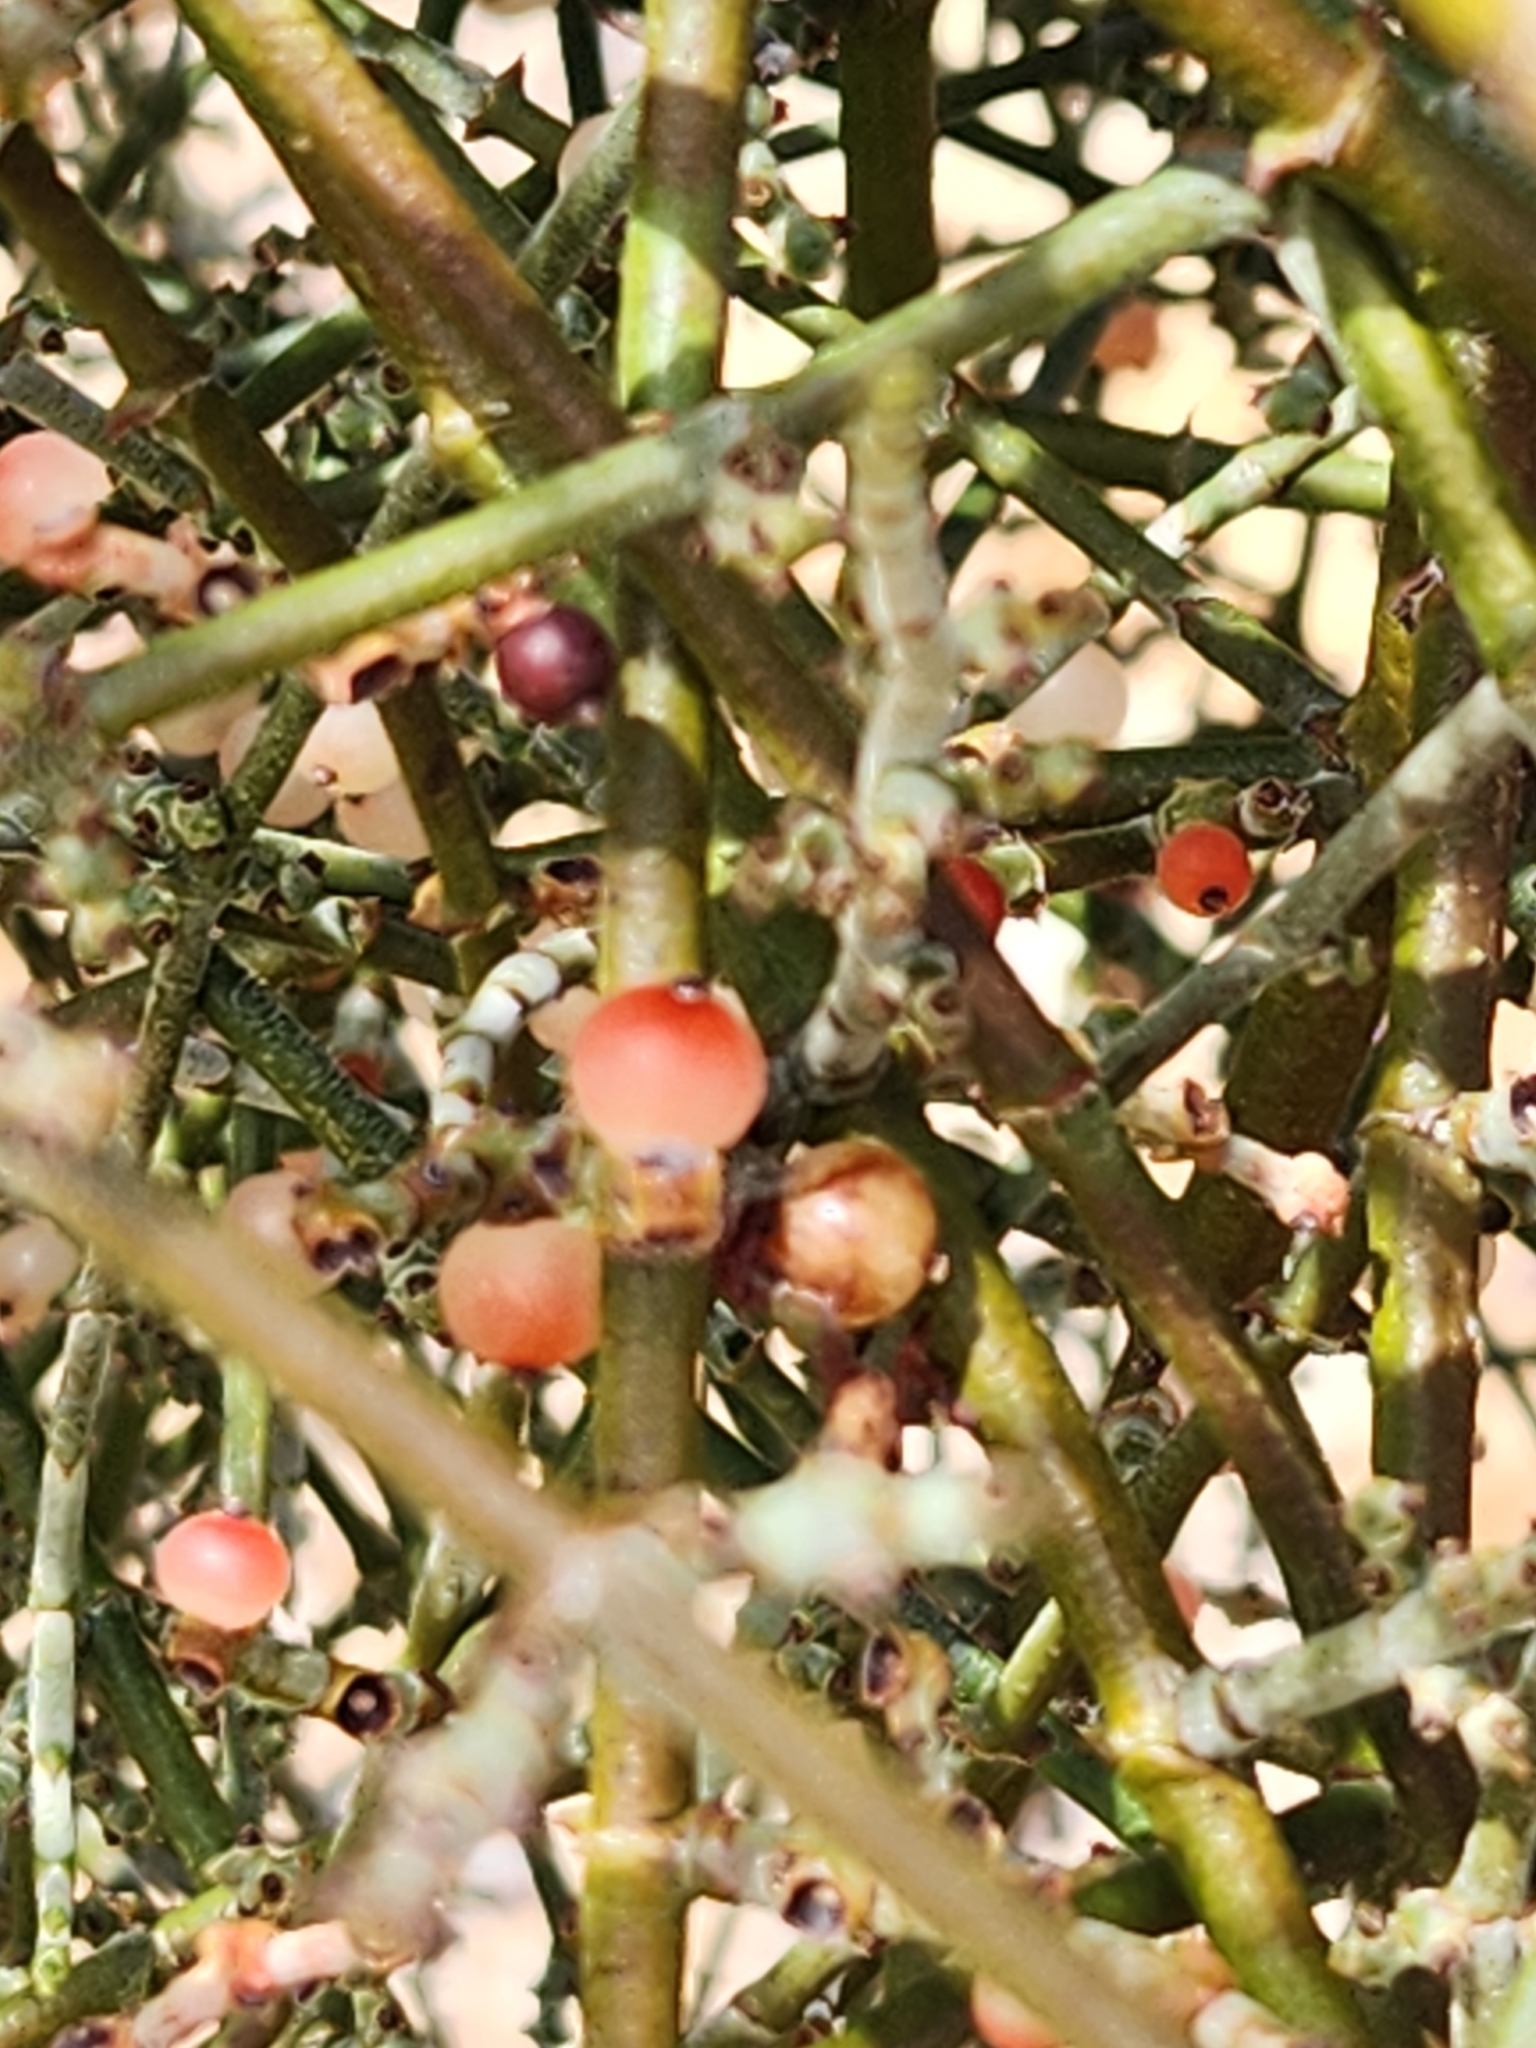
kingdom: Plantae
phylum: Tracheophyta
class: Magnoliopsida
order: Santalales
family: Viscaceae
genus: Phoradendron
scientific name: Phoradendron californicum
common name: Acacia mistletoe
